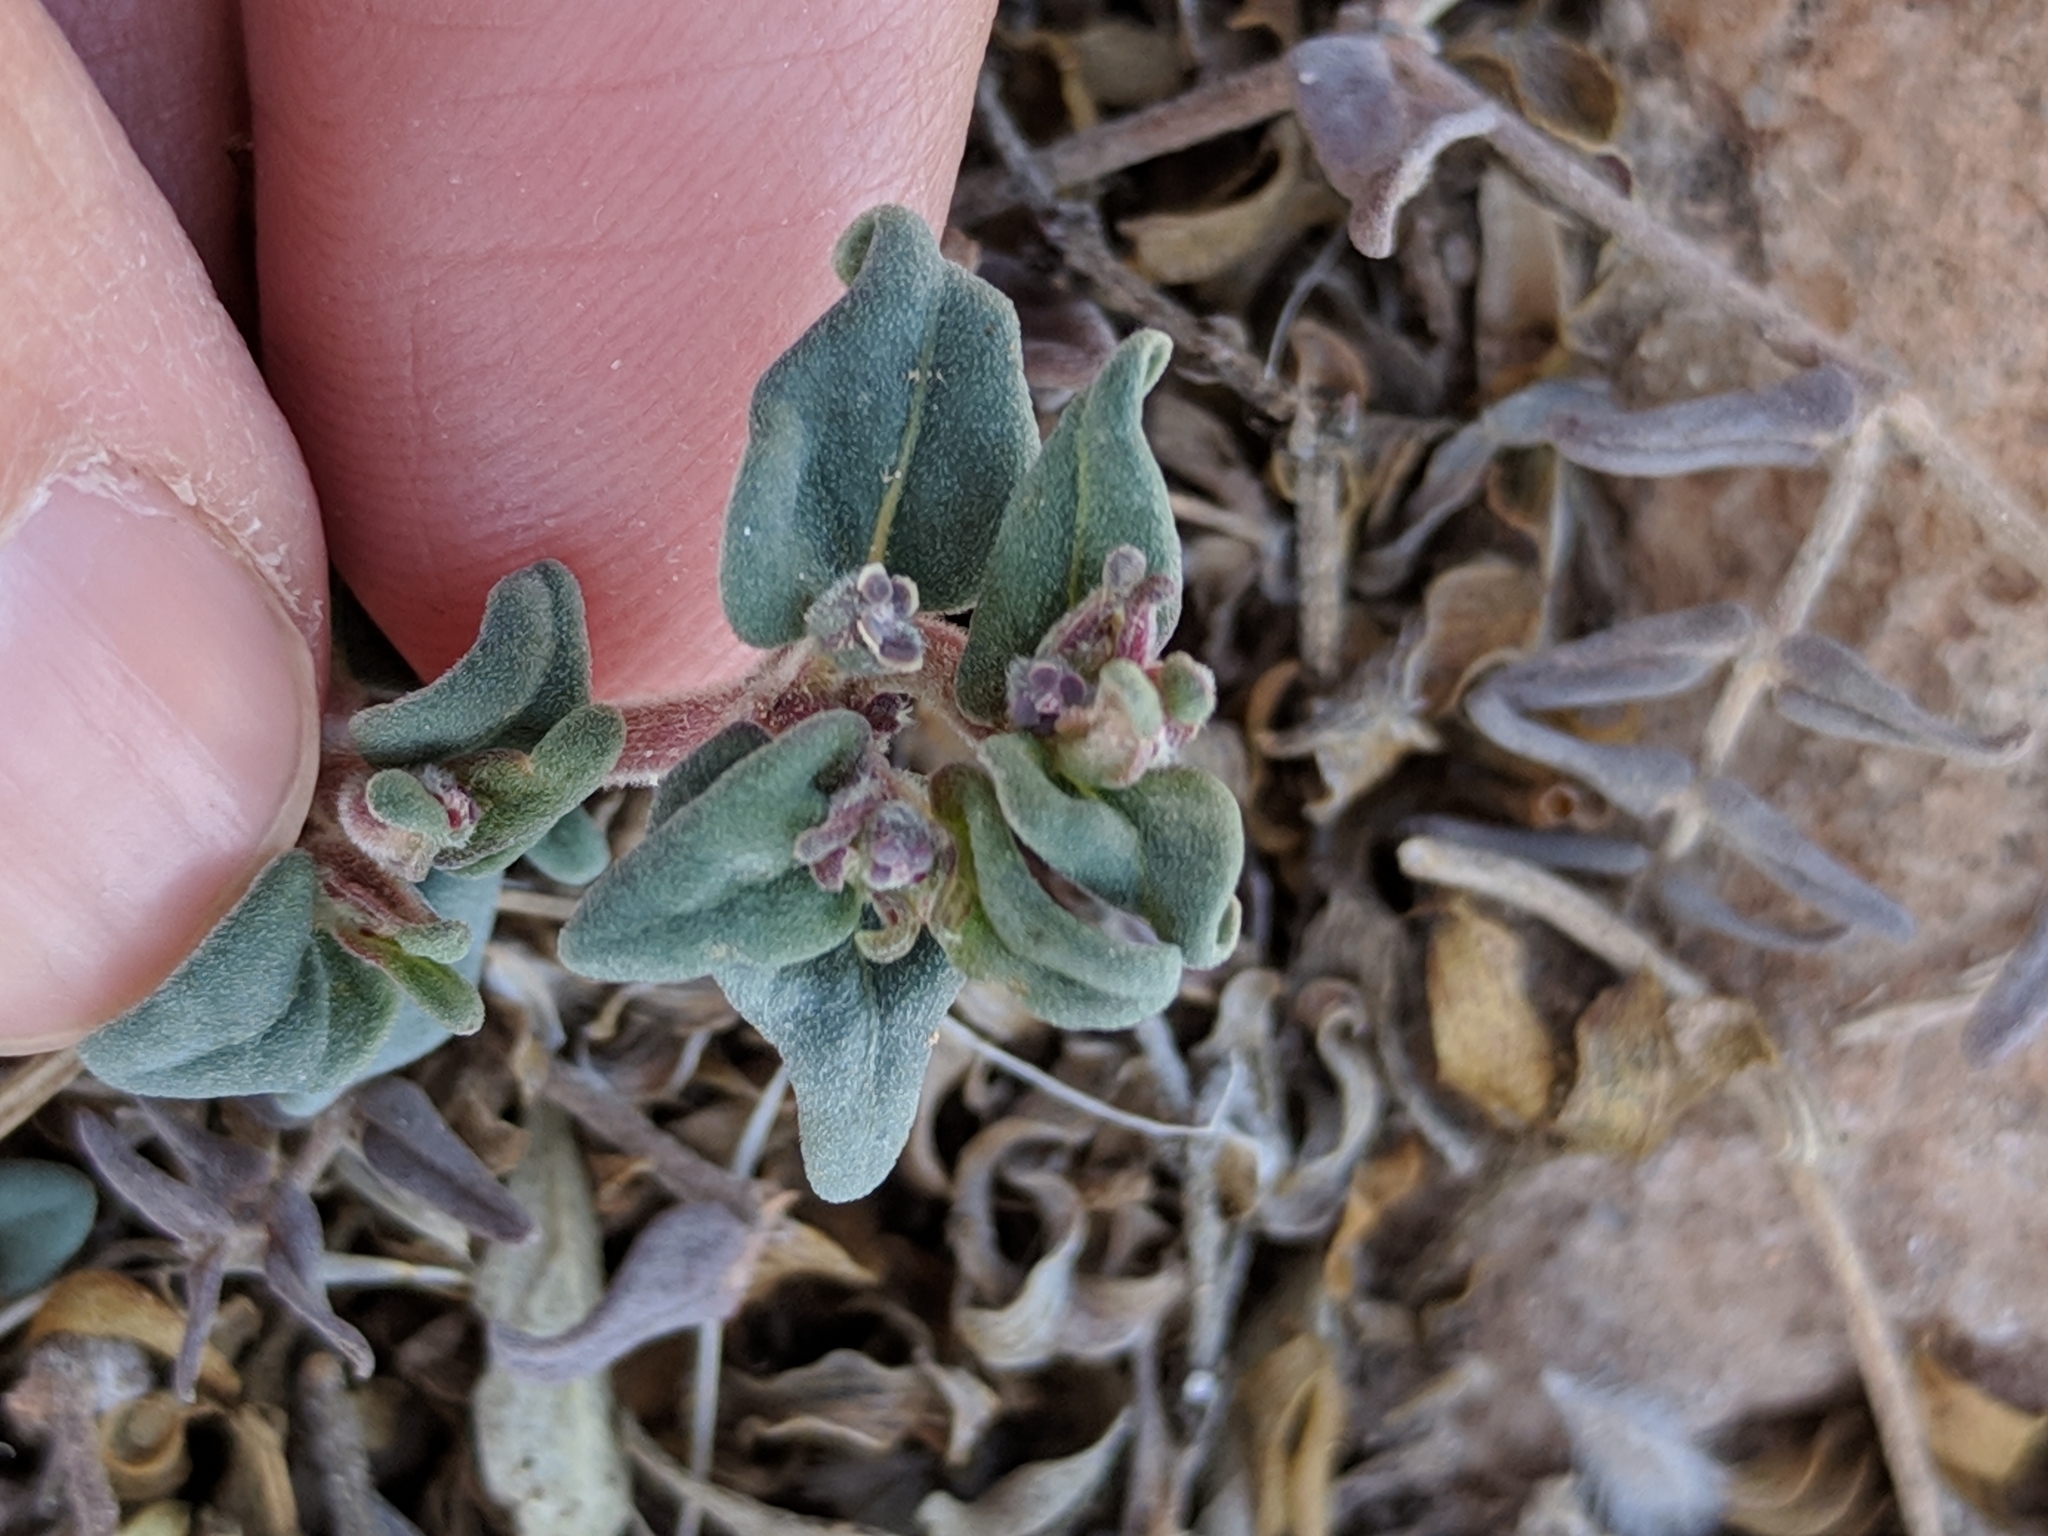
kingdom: Plantae
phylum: Tracheophyta
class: Magnoliopsida
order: Malpighiales
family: Euphorbiaceae
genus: Euphorbia
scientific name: Euphorbia lata
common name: Hoary euphorbia
